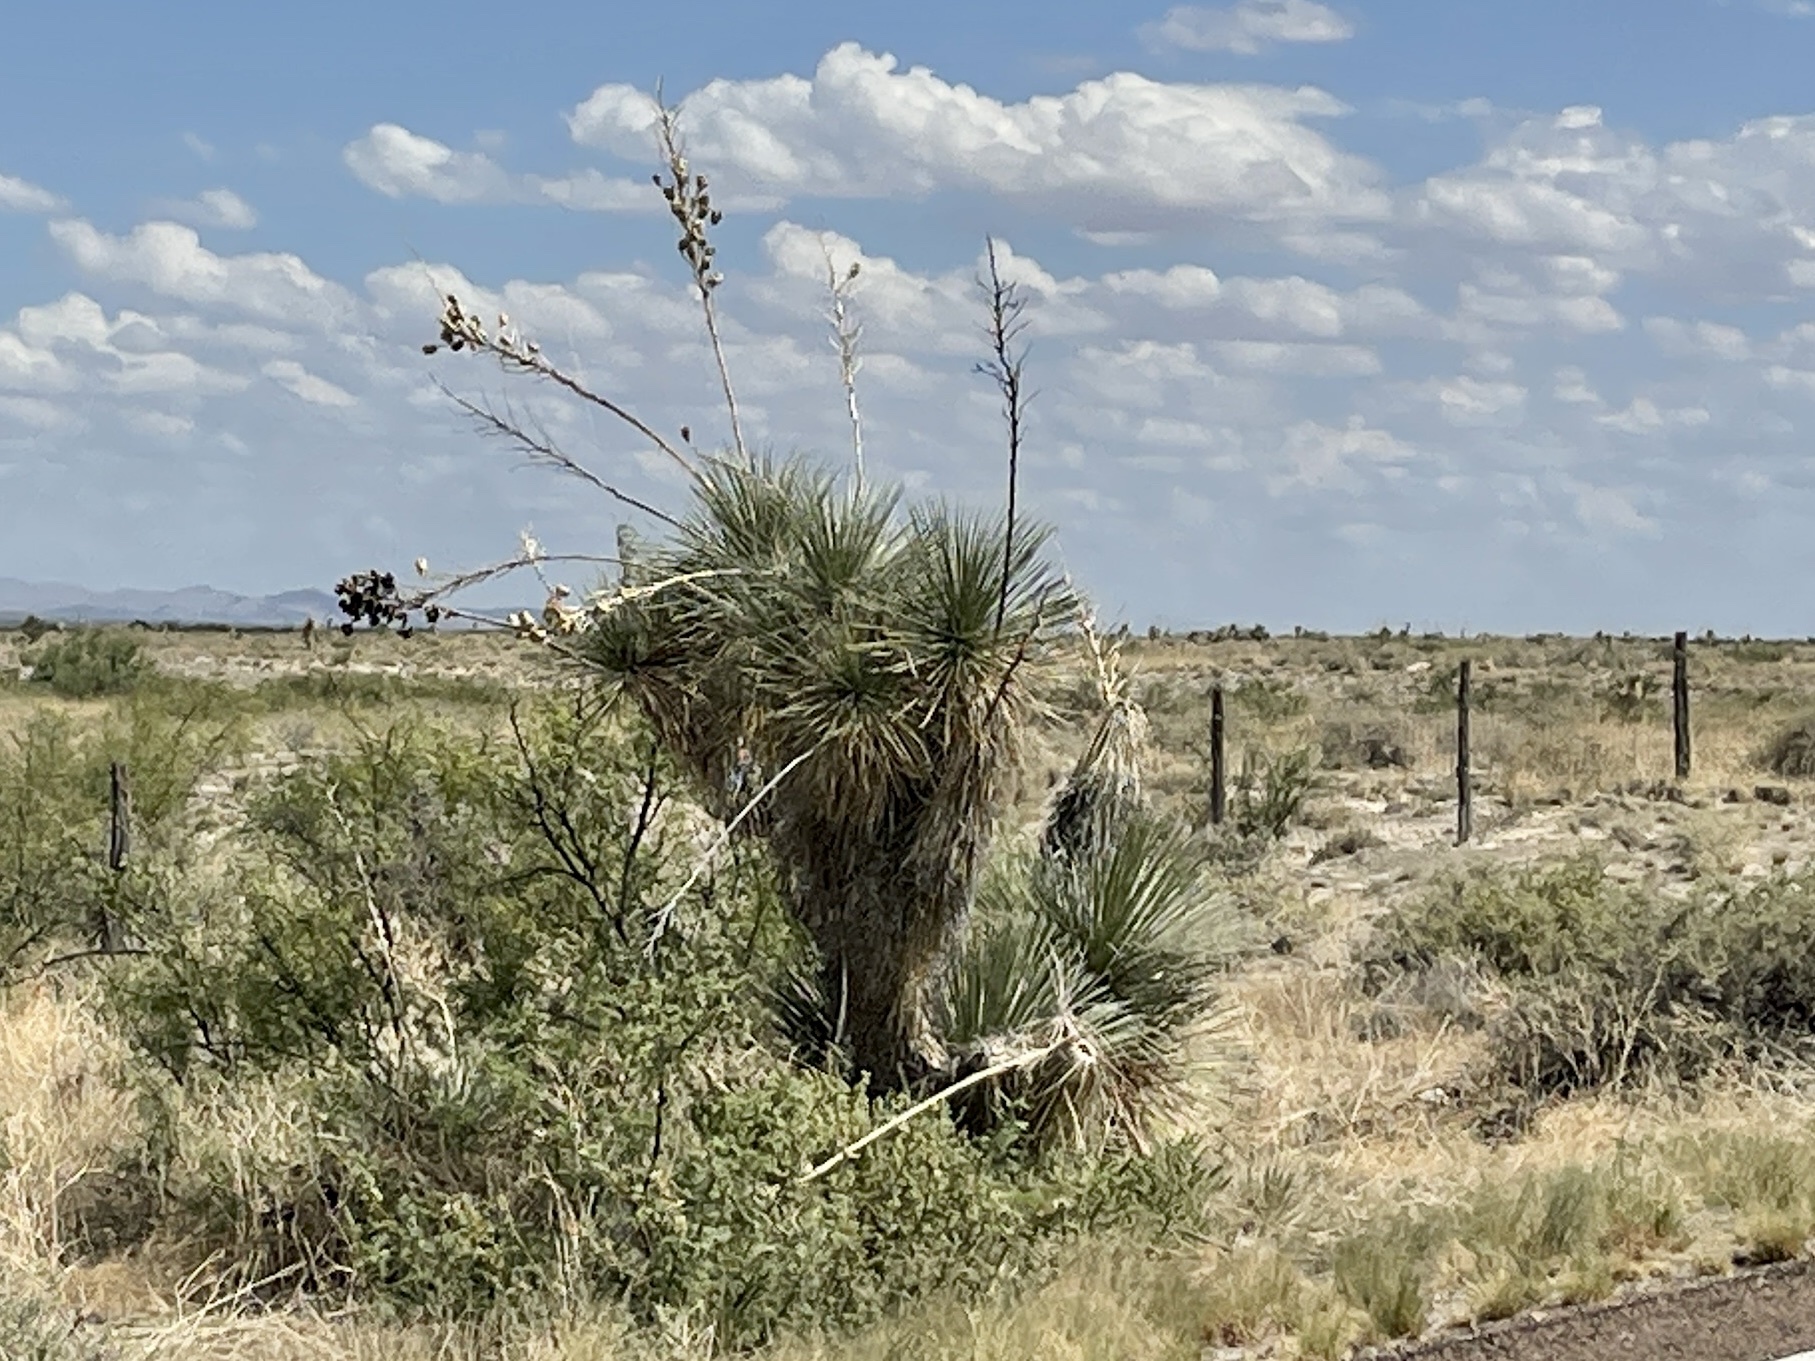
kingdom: Plantae
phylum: Tracheophyta
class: Liliopsida
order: Asparagales
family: Asparagaceae
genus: Yucca
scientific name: Yucca elata
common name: Palmella
